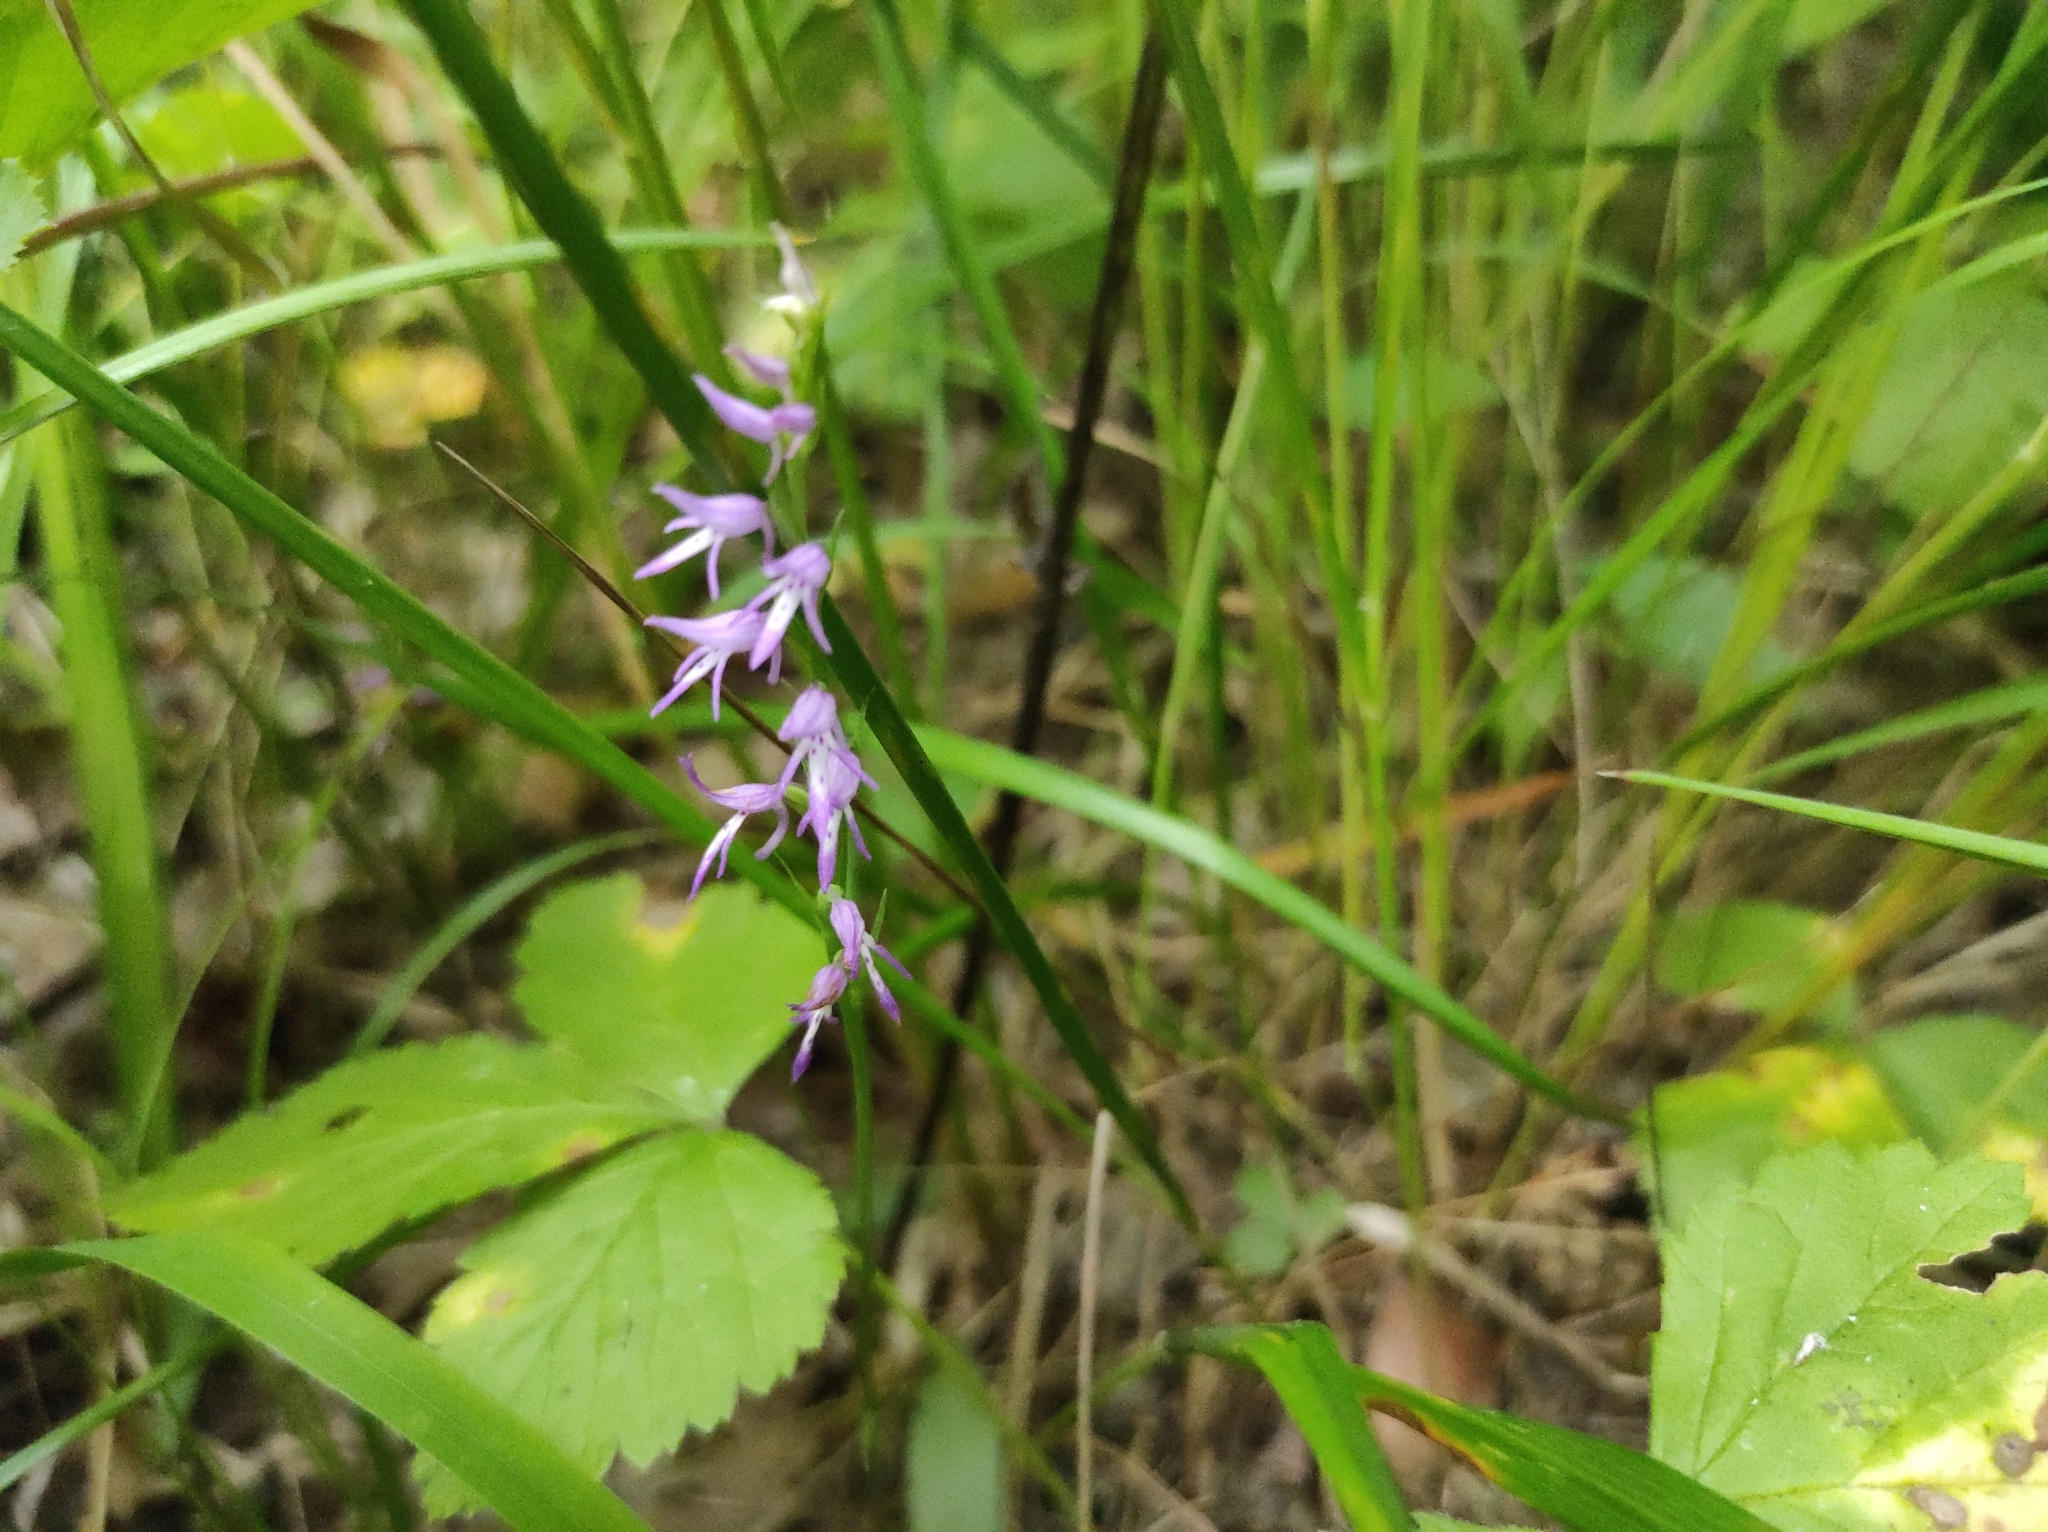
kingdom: Plantae
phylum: Tracheophyta
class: Liliopsida
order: Asparagales
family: Orchidaceae
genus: Hemipilia
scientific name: Hemipilia cucullata
